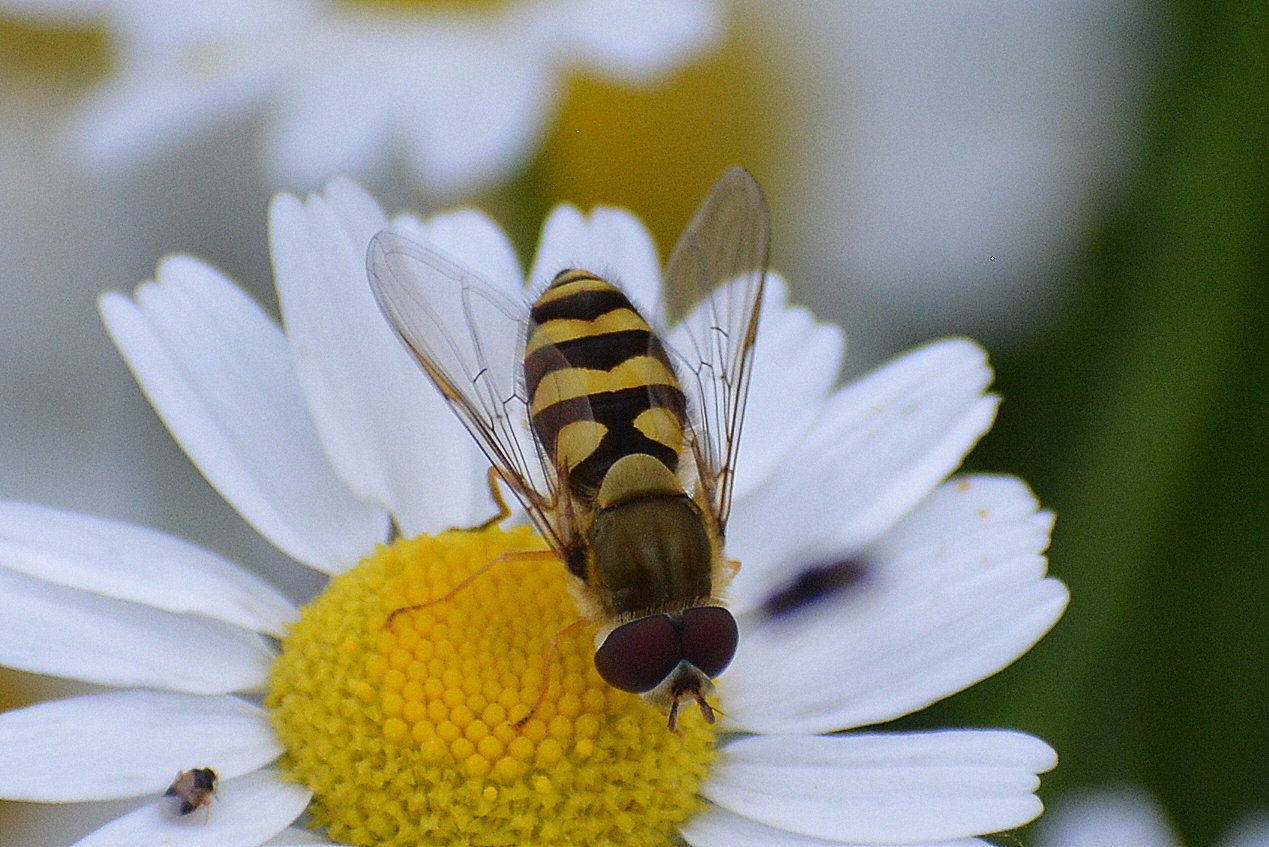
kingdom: Animalia
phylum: Arthropoda
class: Insecta
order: Diptera
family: Syrphidae
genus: Syrphus
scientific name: Syrphus
